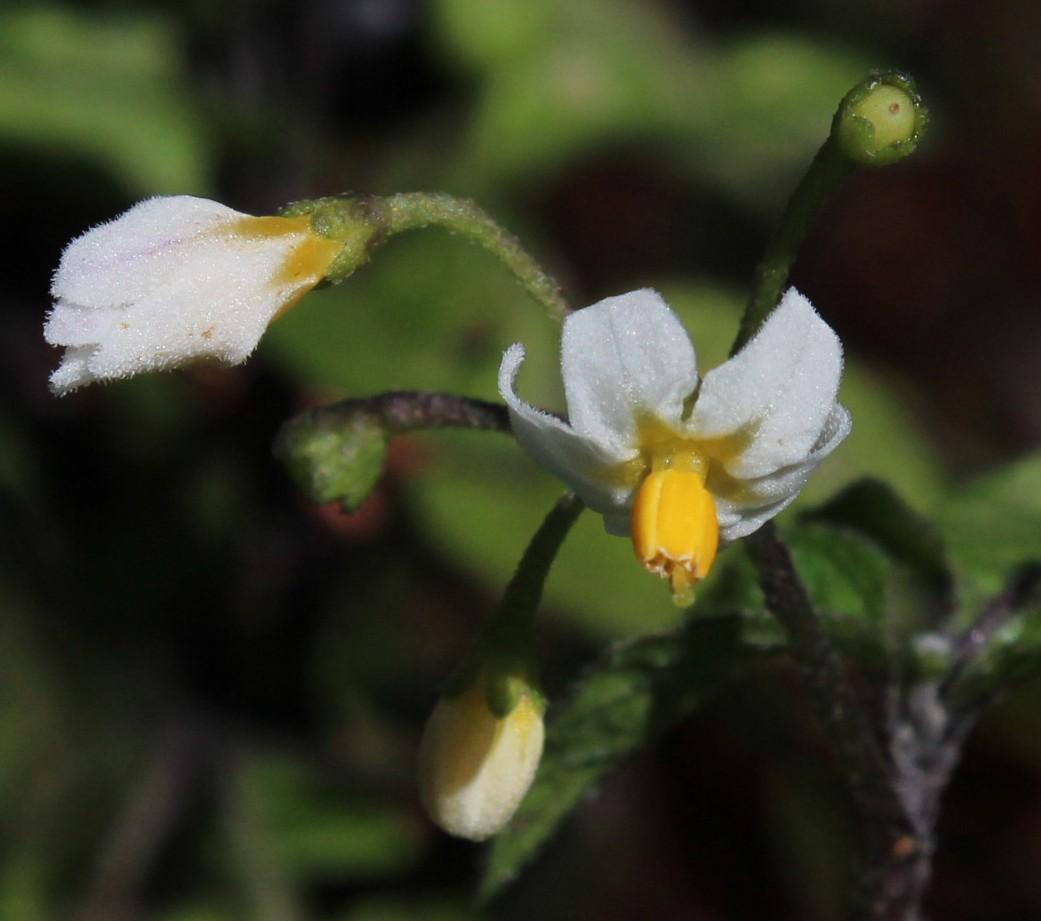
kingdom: Plantae
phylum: Tracheophyta
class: Magnoliopsida
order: Solanales
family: Solanaceae
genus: Solanum
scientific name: Solanum nigrum
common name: Black nightshade
